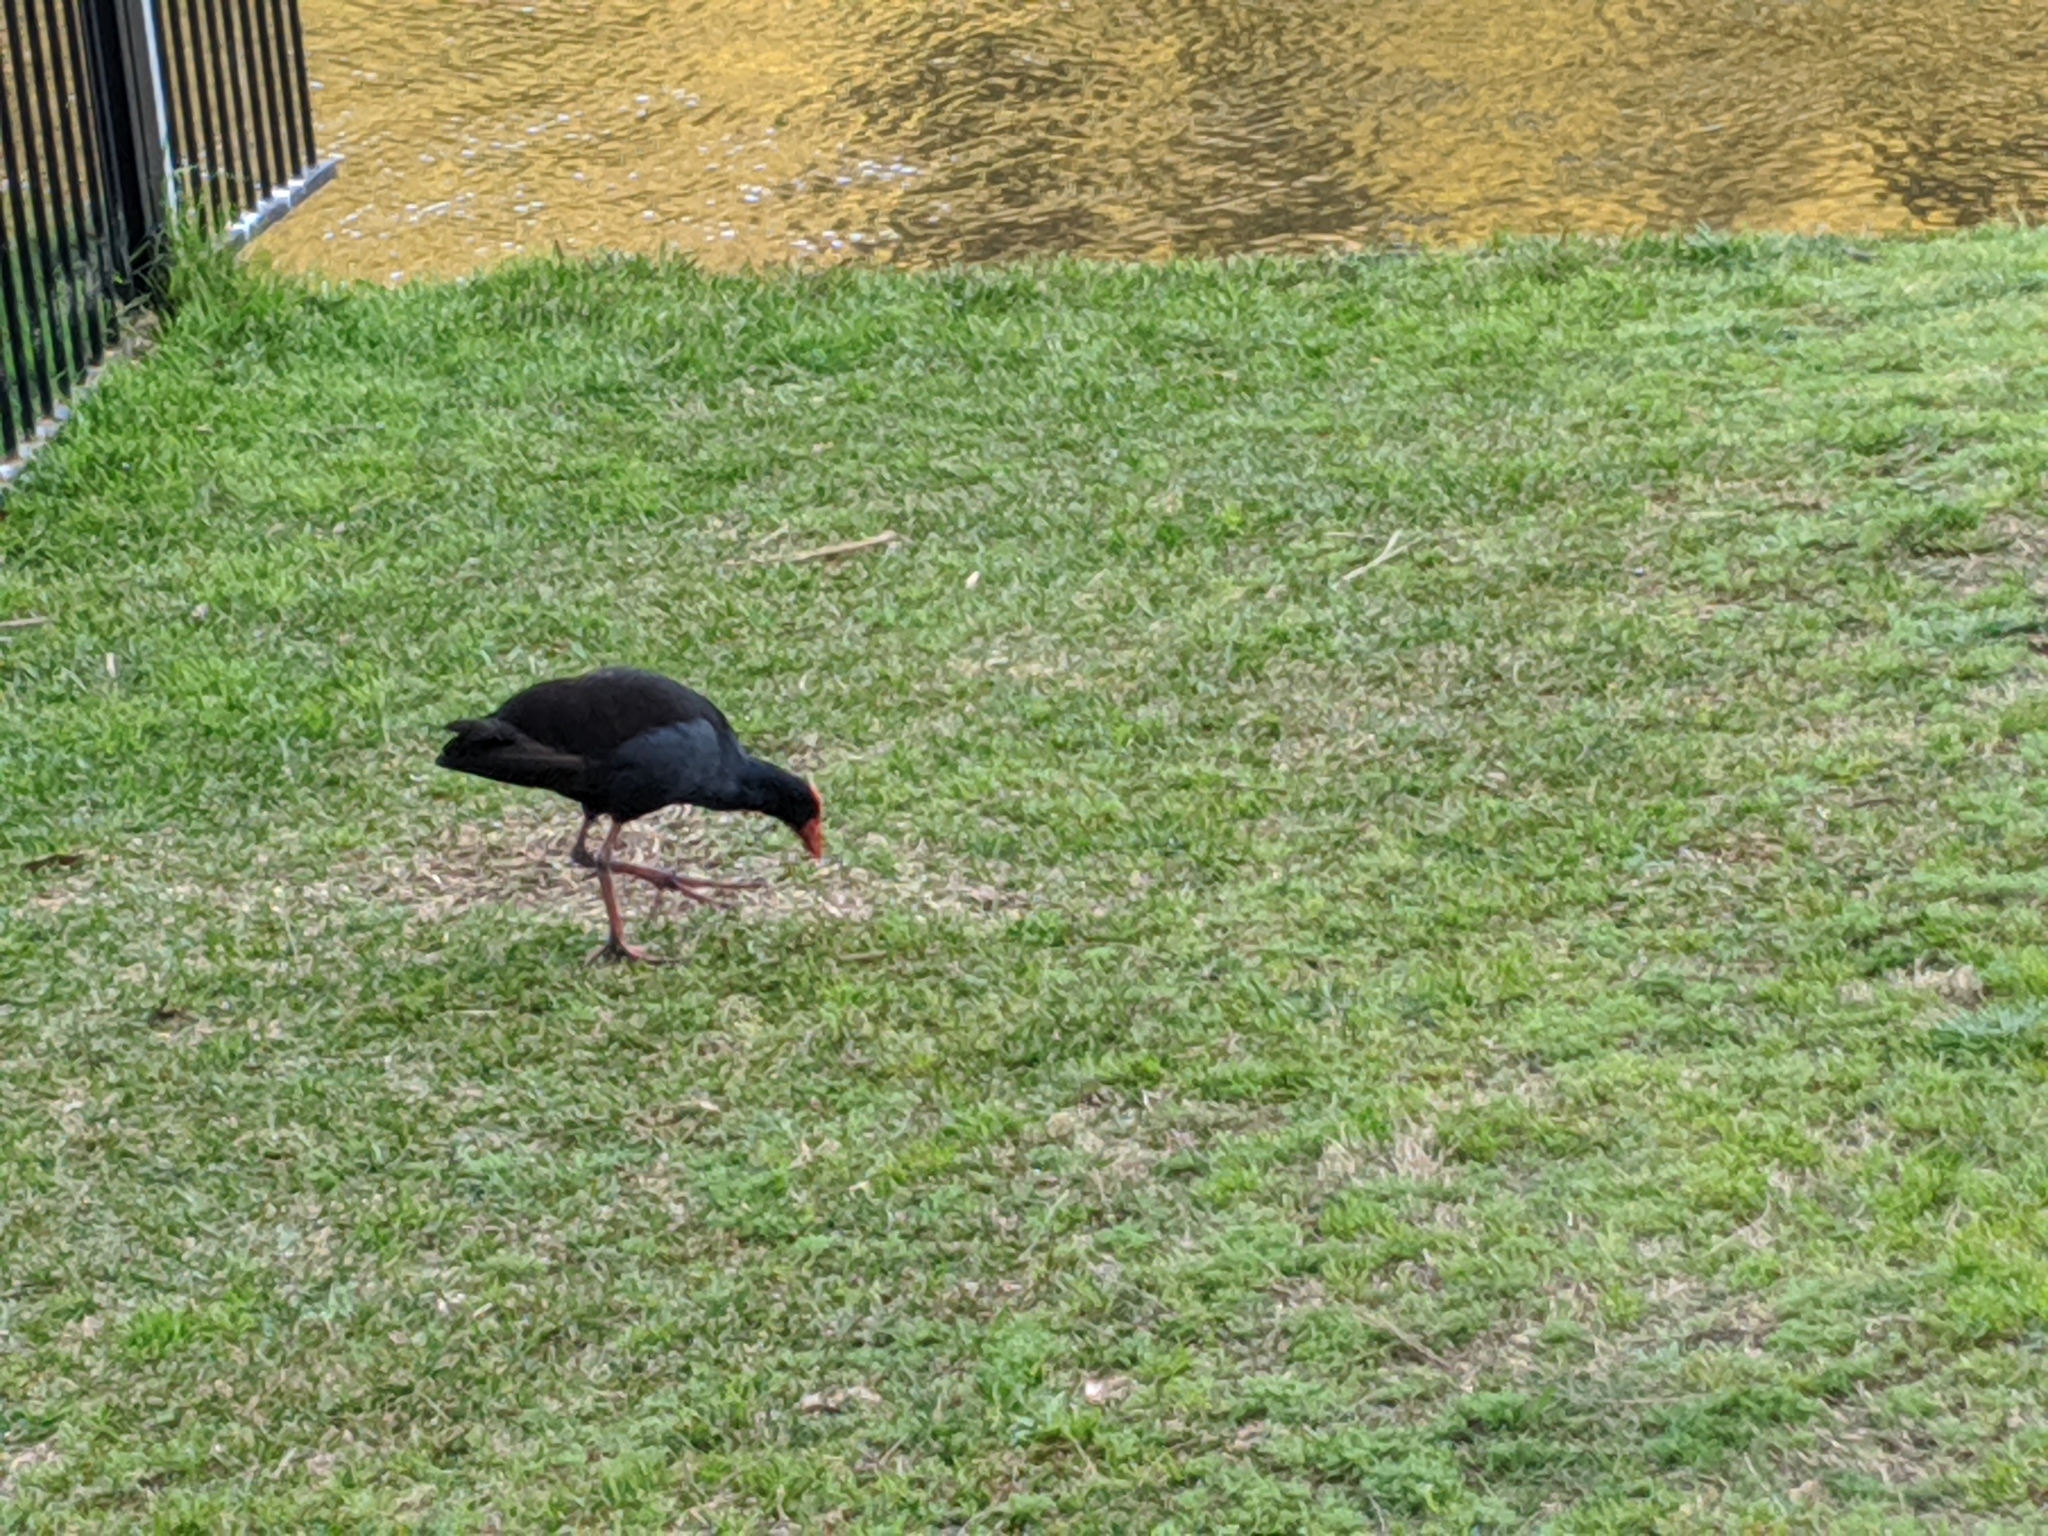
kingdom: Animalia
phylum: Chordata
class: Aves
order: Gruiformes
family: Rallidae
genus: Porphyrio
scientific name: Porphyrio melanotus
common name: Australasian swamphen
